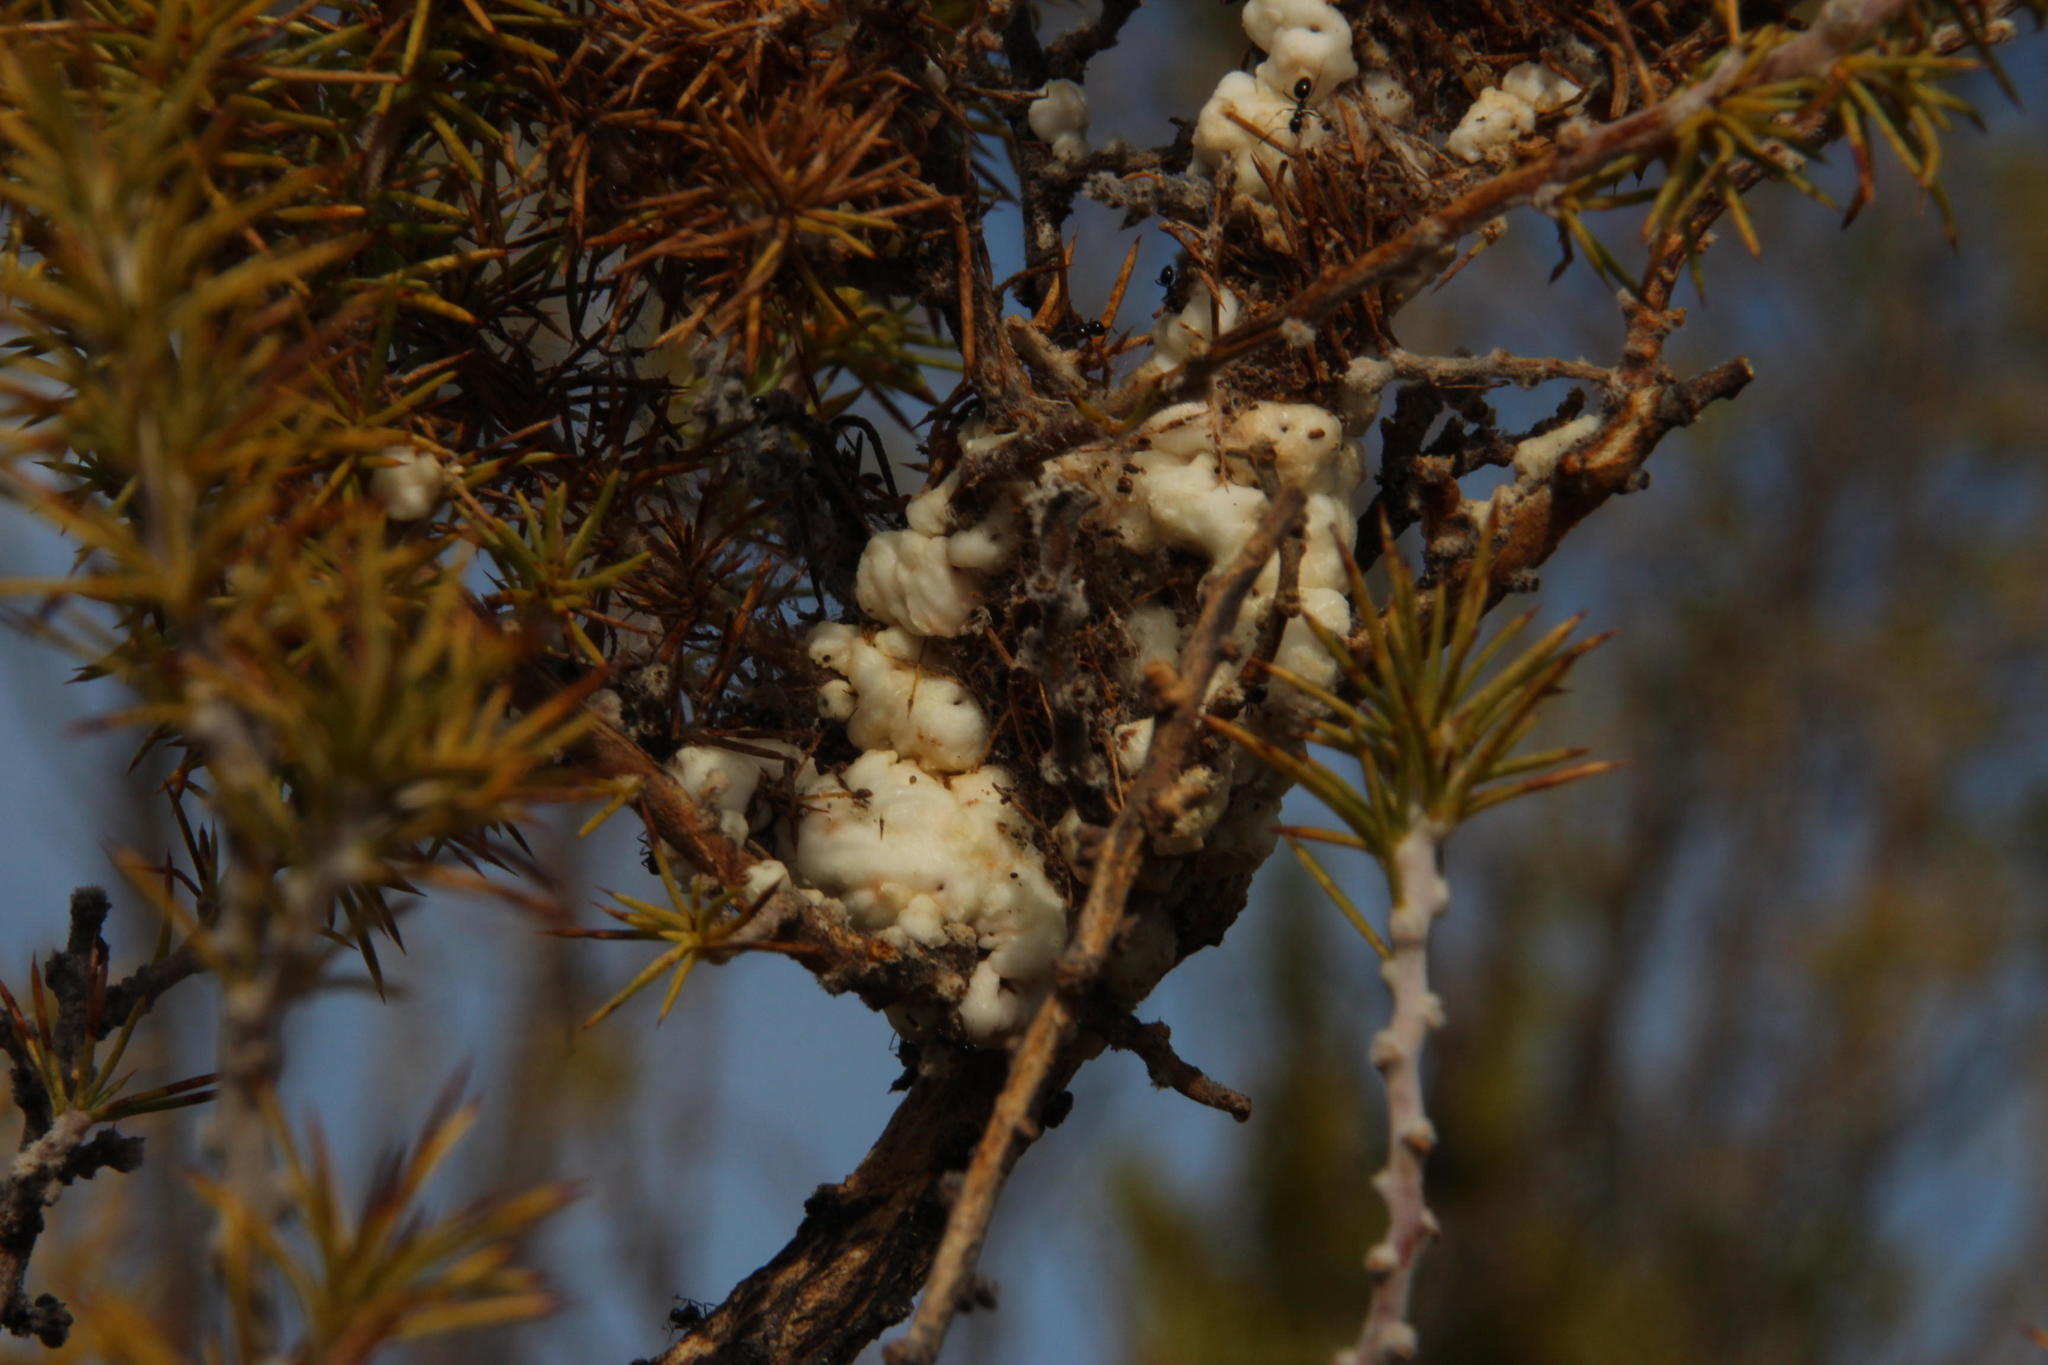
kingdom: Animalia
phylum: Arthropoda
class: Insecta
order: Hymenoptera
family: Formicidae
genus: Lepisiota
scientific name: Lepisiota capensis
